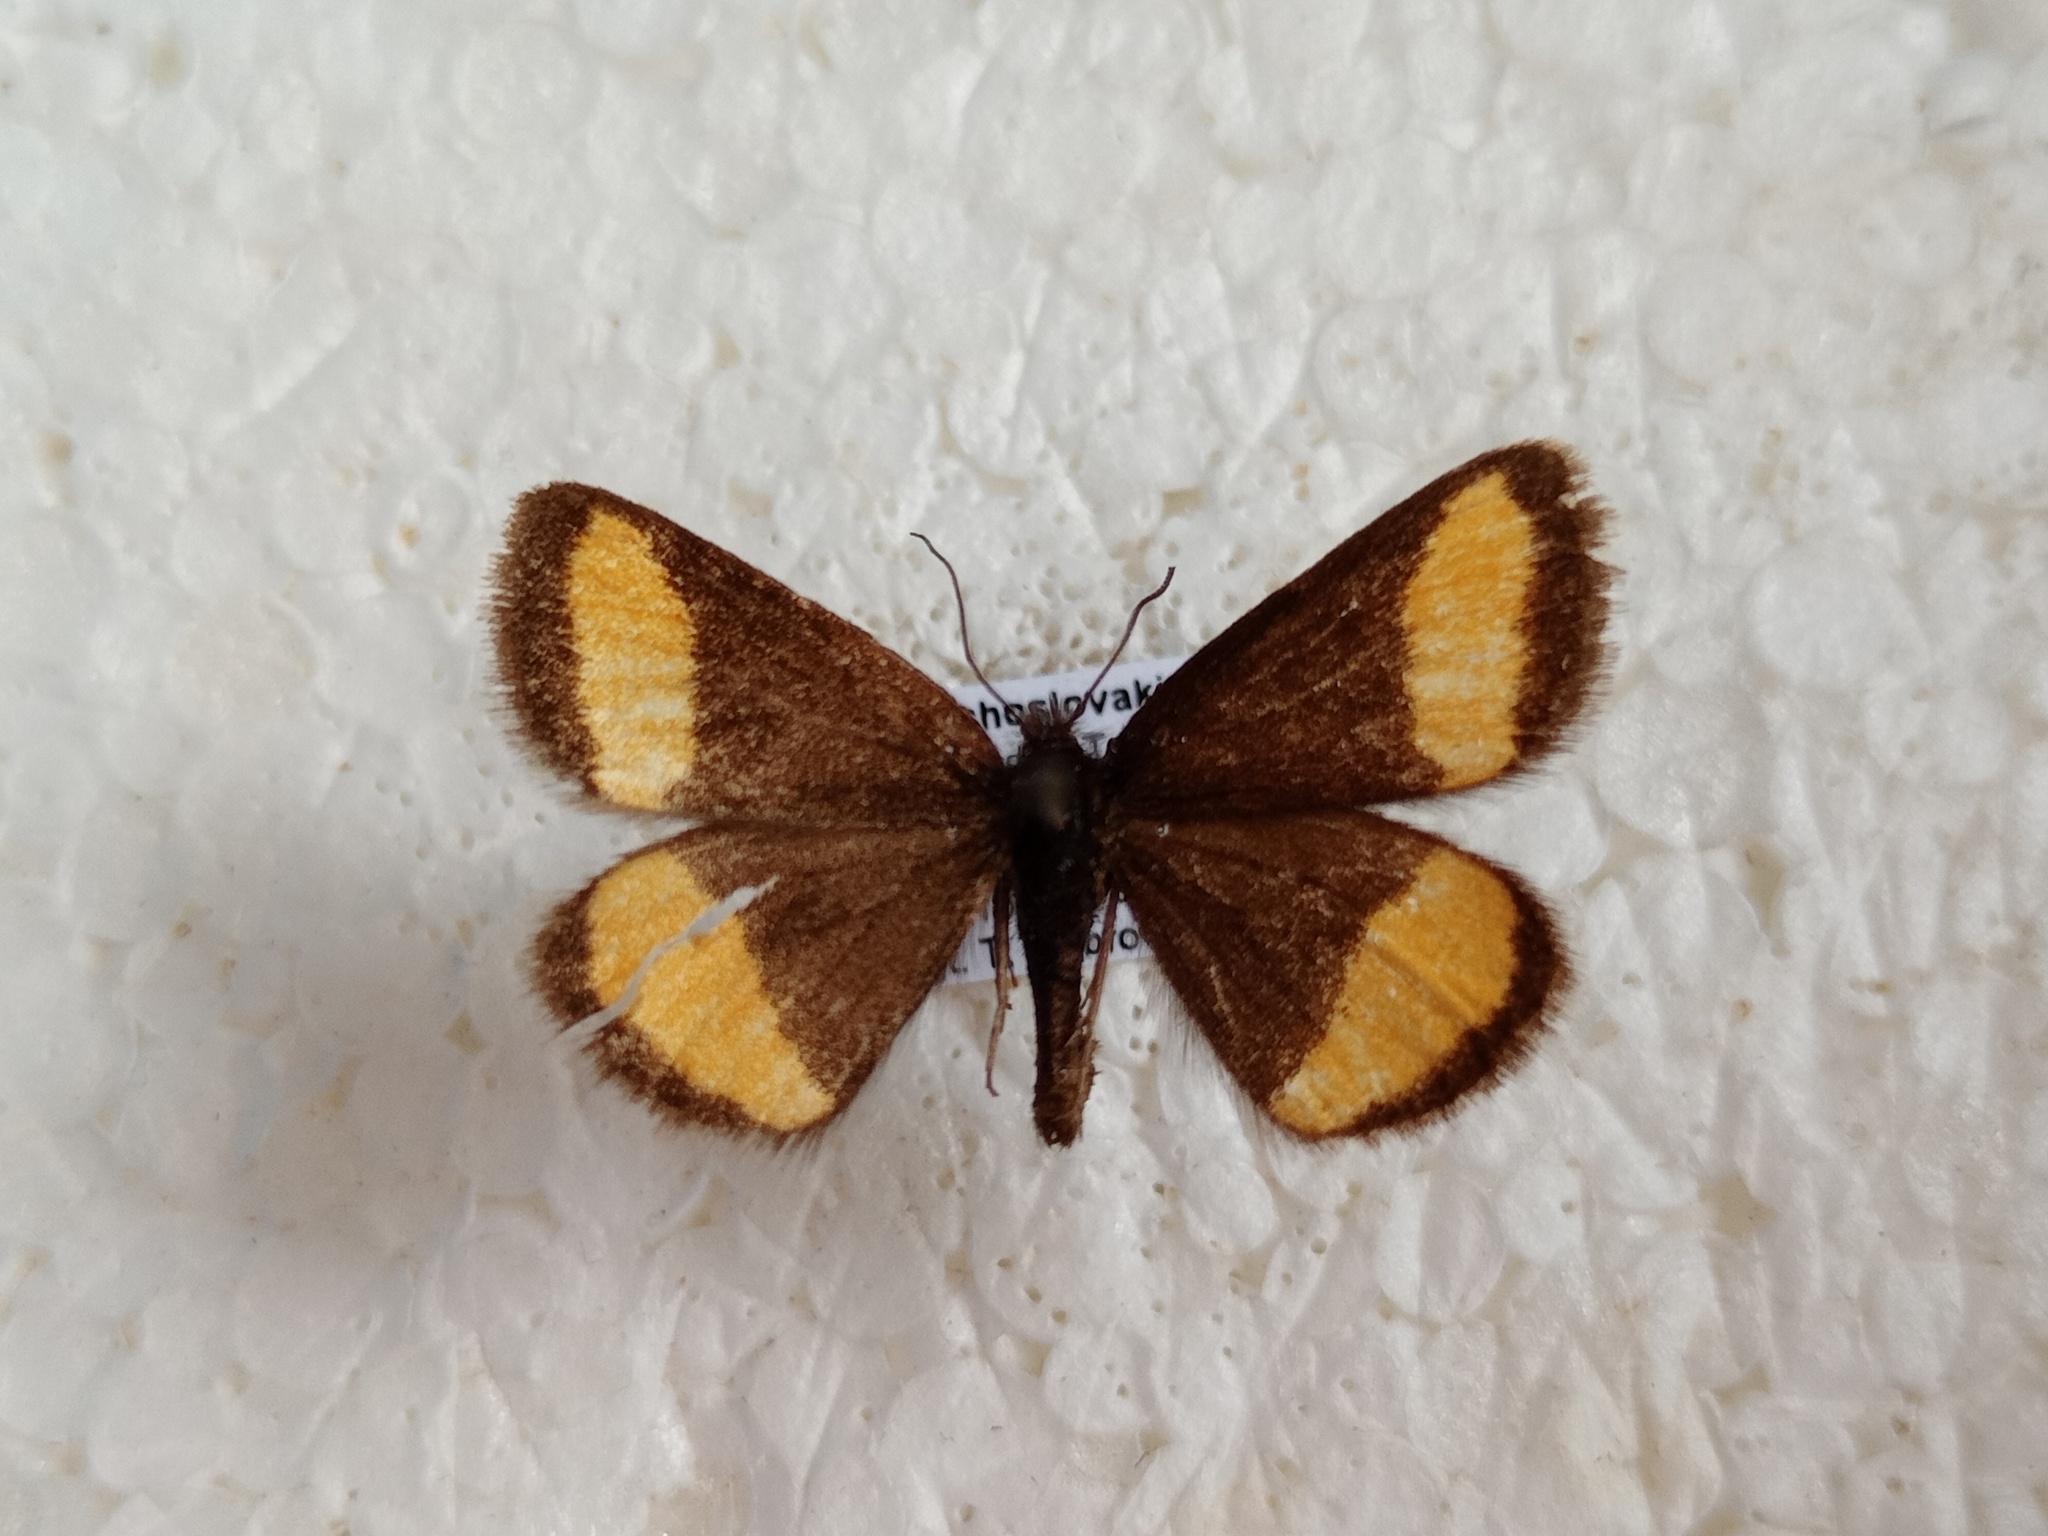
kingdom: Animalia
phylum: Arthropoda
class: Insecta
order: Lepidoptera
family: Geometridae
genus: Psodos
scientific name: Psodos quadrifaria
